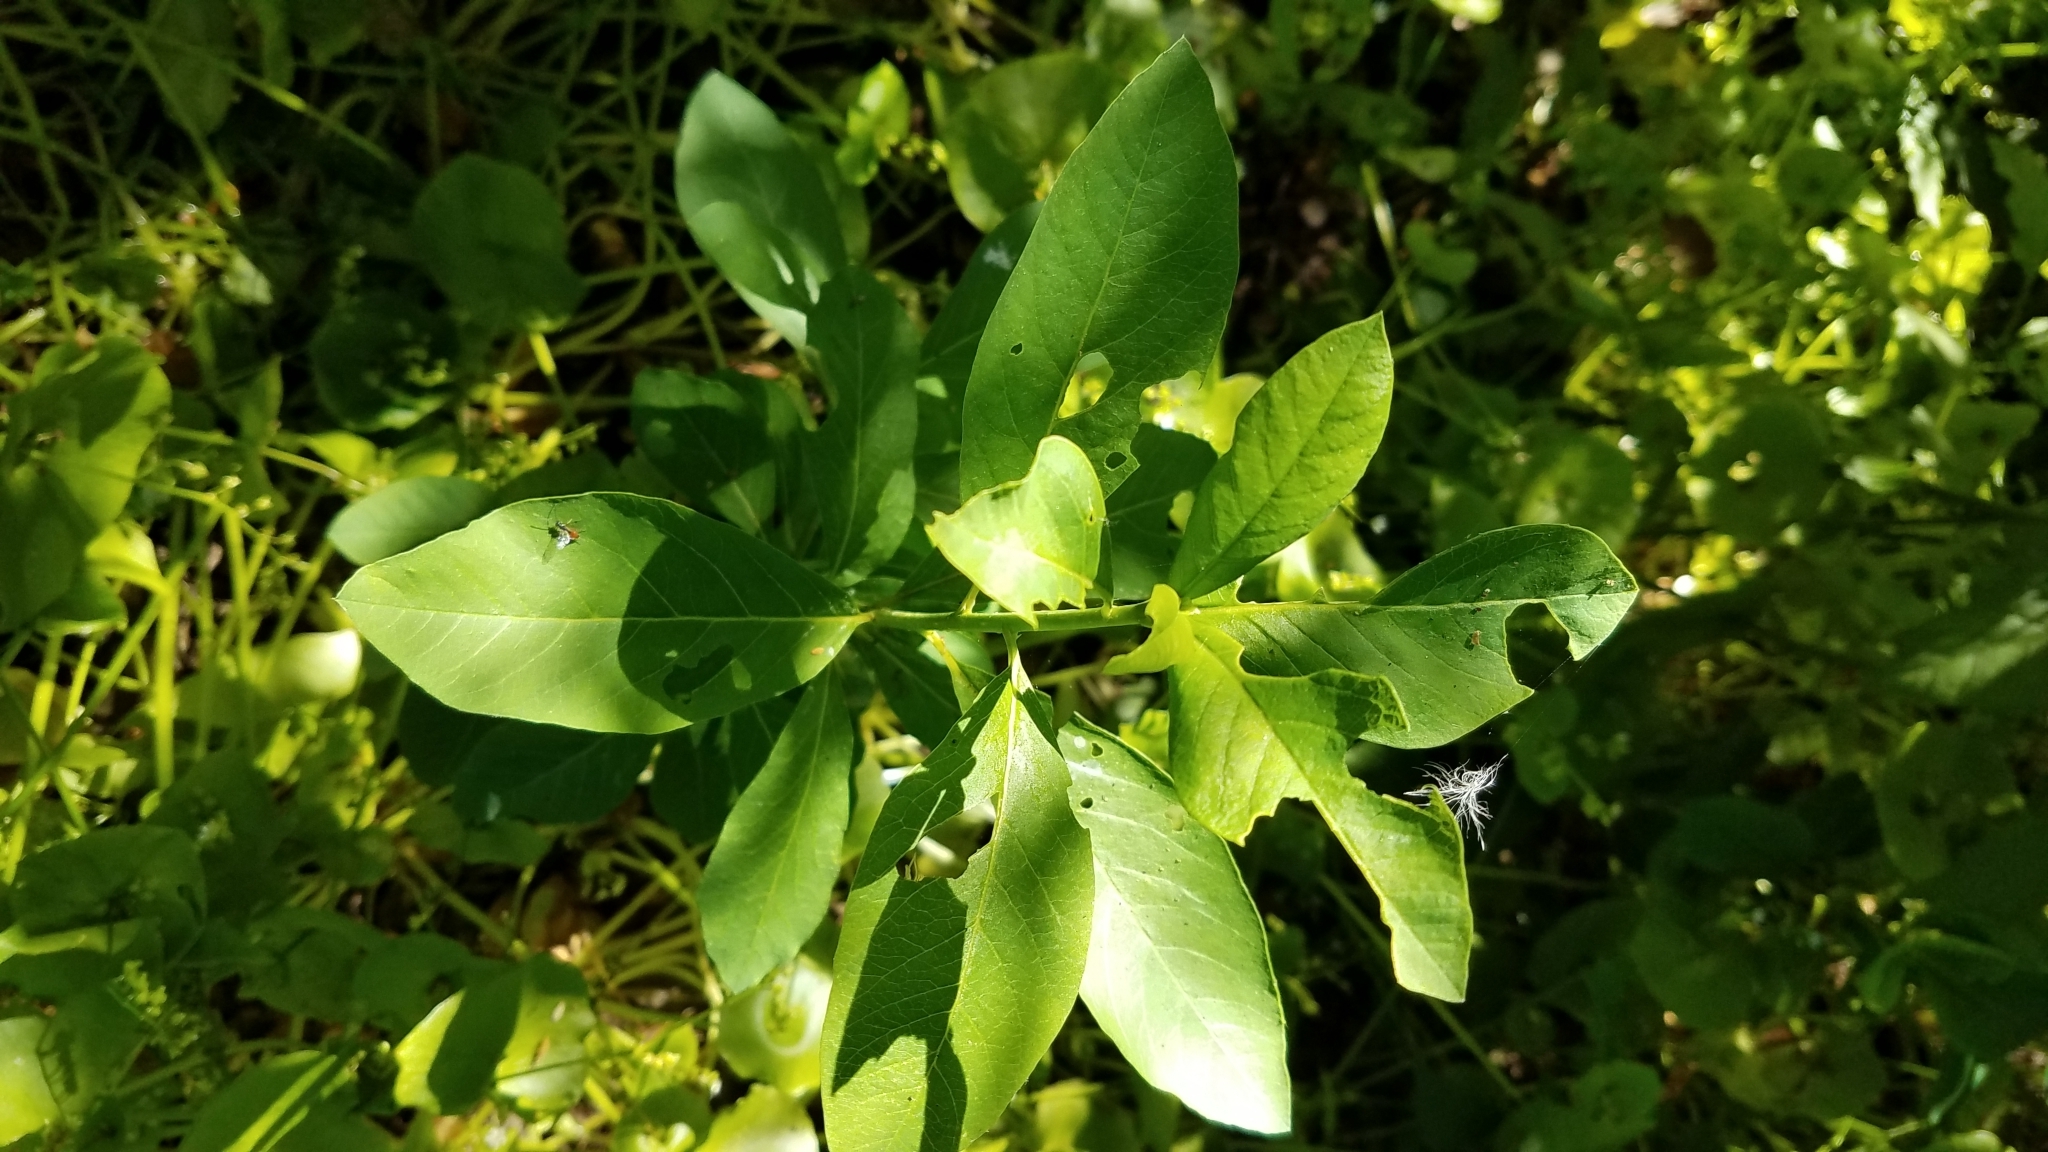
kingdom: Plantae
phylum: Tracheophyta
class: Magnoliopsida
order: Rosales
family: Rosaceae
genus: Oemleria
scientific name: Oemleria cerasiformis
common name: Osoberry
